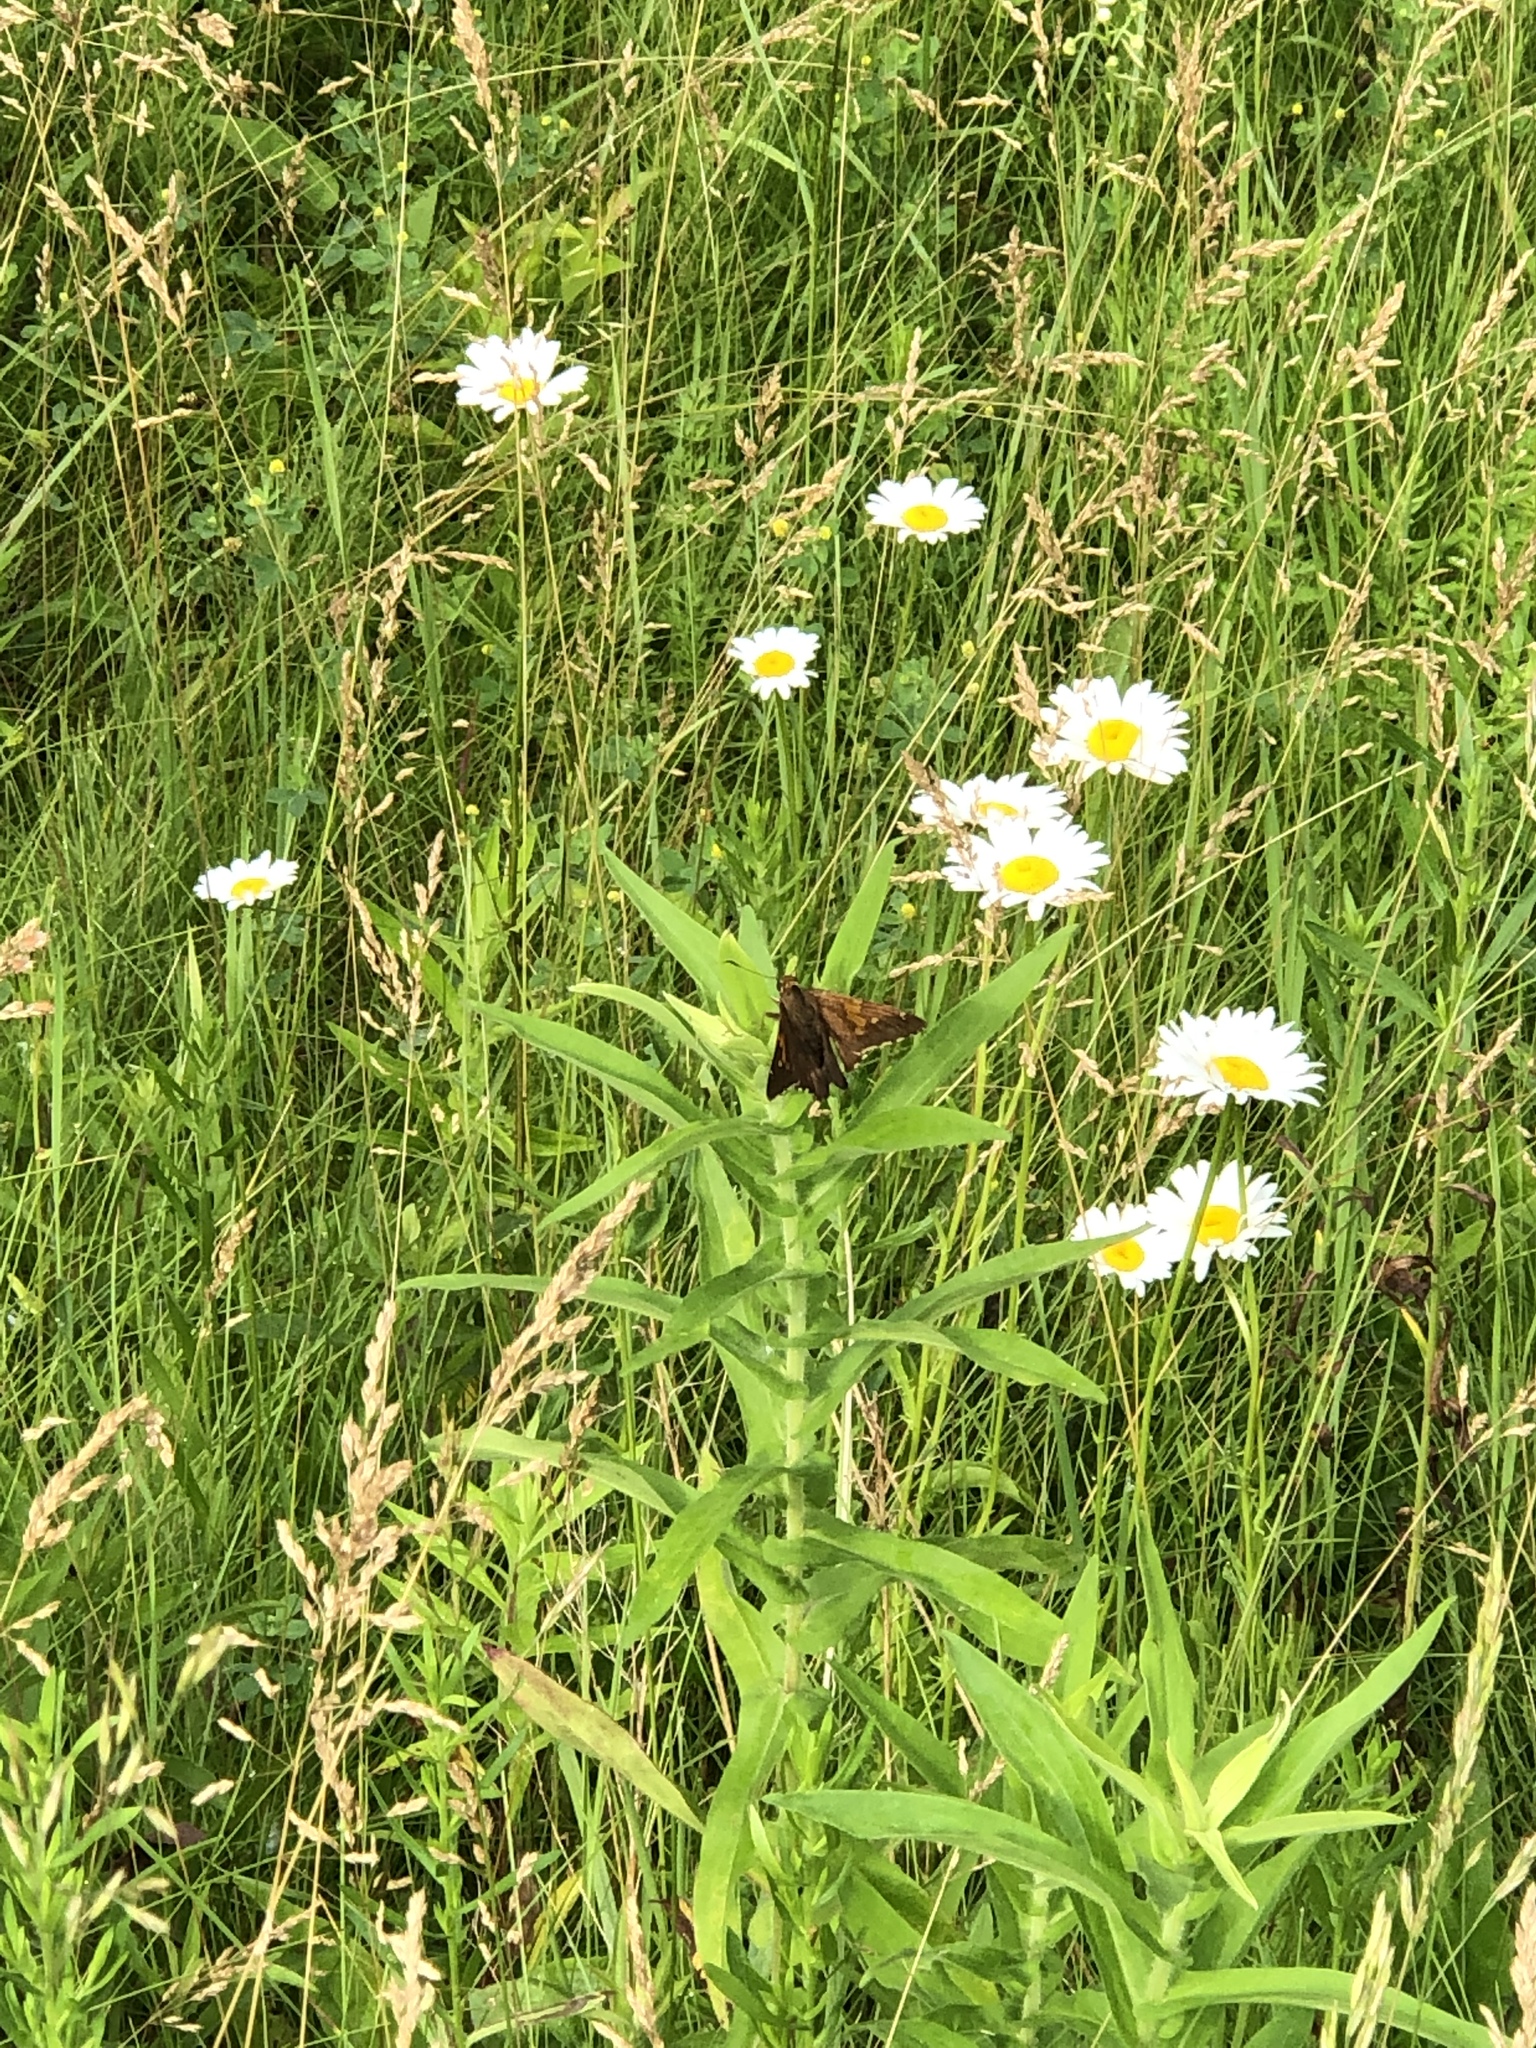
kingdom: Animalia
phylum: Arthropoda
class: Insecta
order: Lepidoptera
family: Hesperiidae
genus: Epargyreus
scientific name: Epargyreus clarus
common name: Silver-spotted skipper
